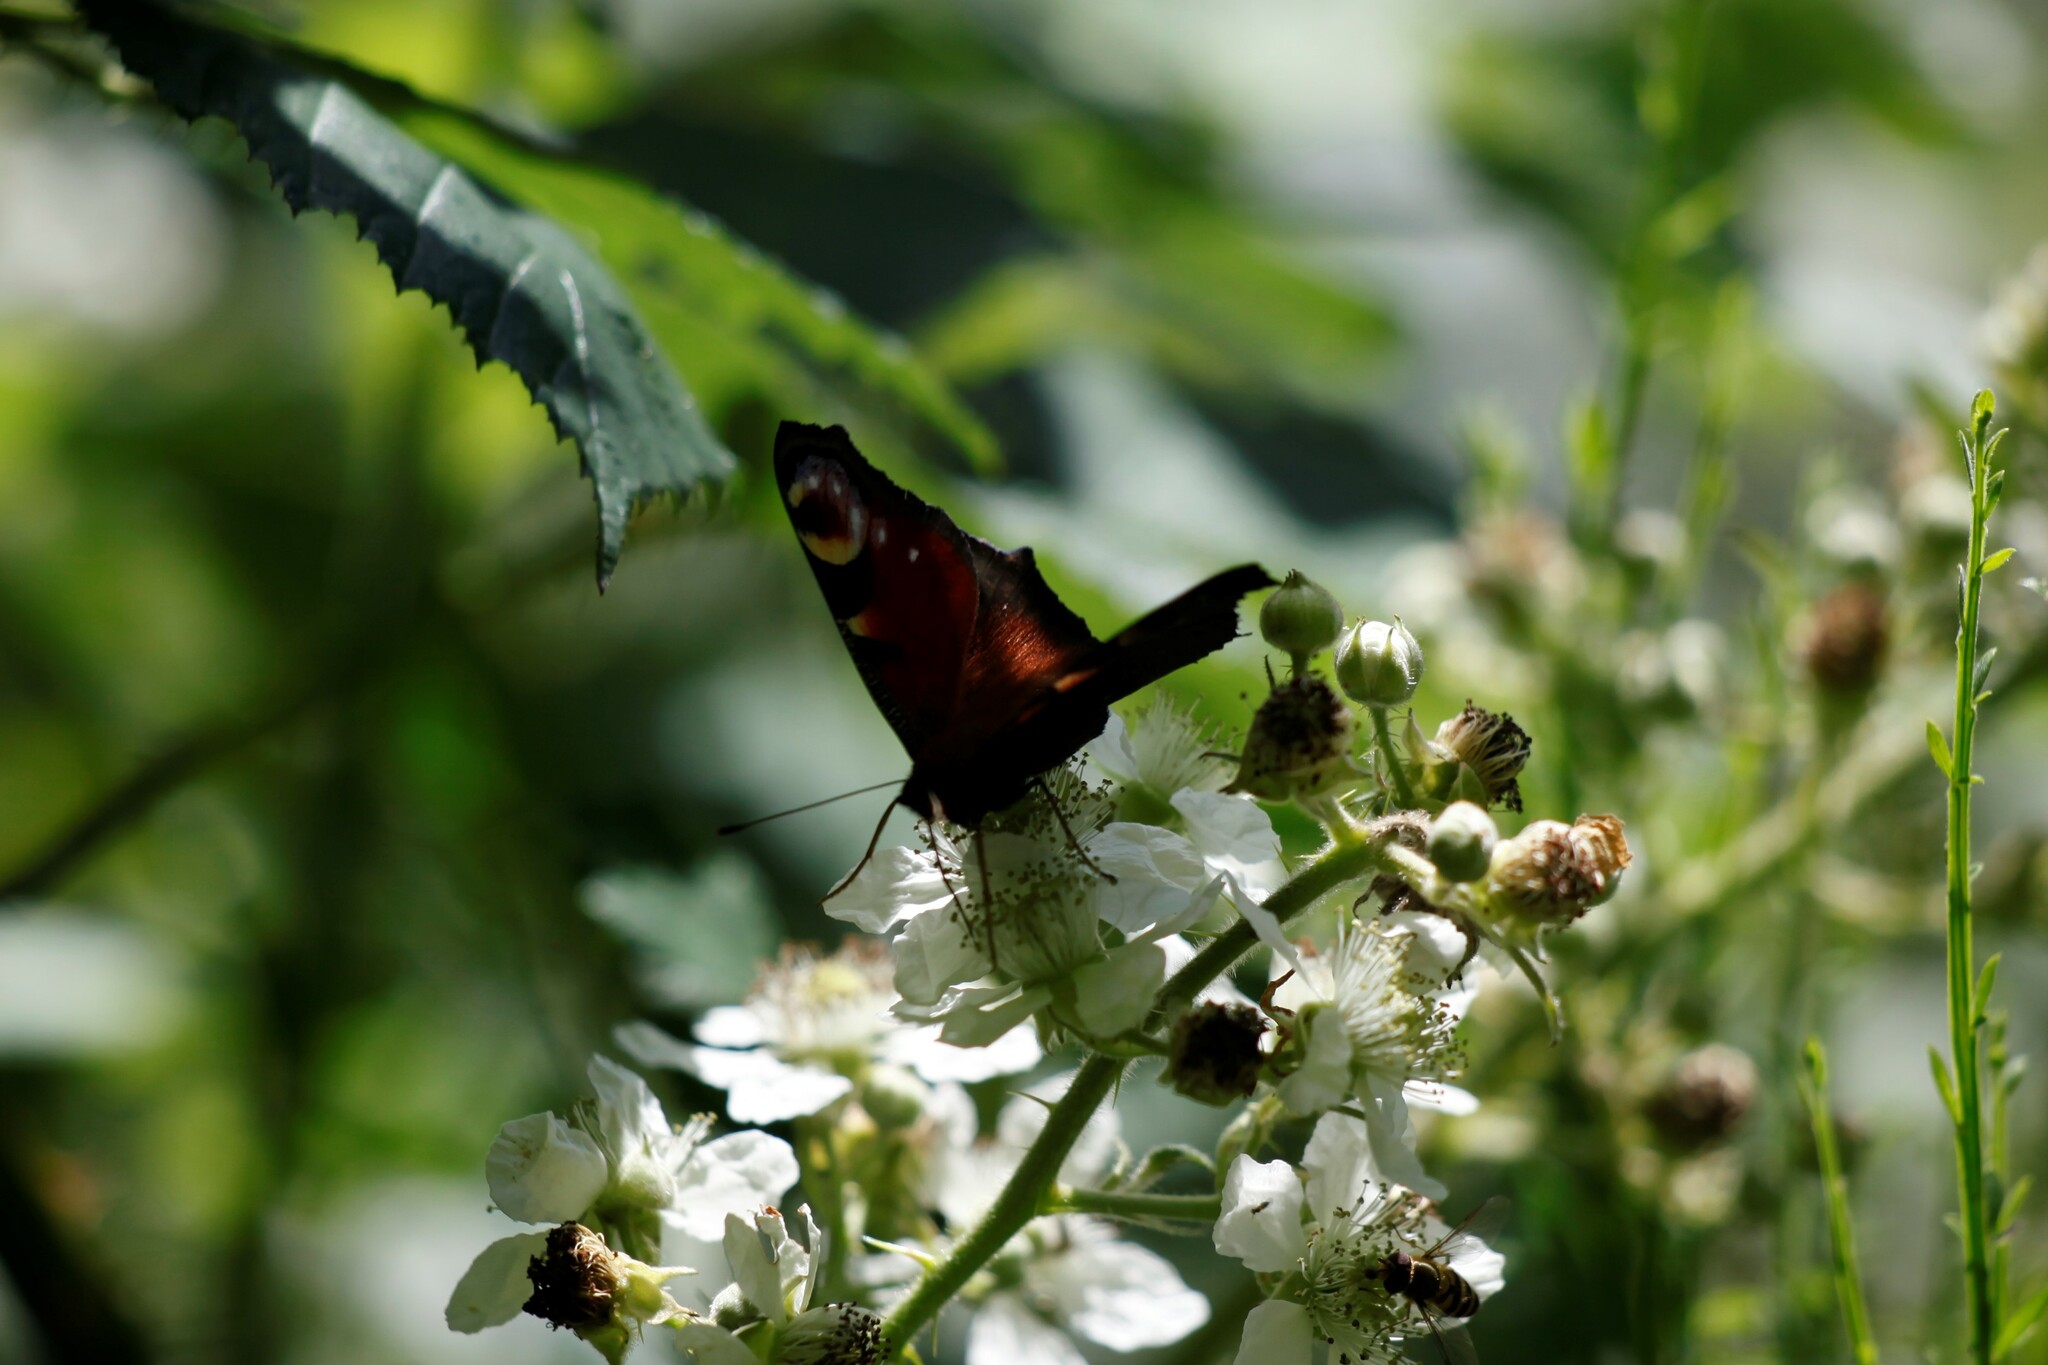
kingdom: Animalia
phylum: Arthropoda
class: Insecta
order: Lepidoptera
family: Nymphalidae
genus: Aglais
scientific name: Aglais io
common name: Peacock
